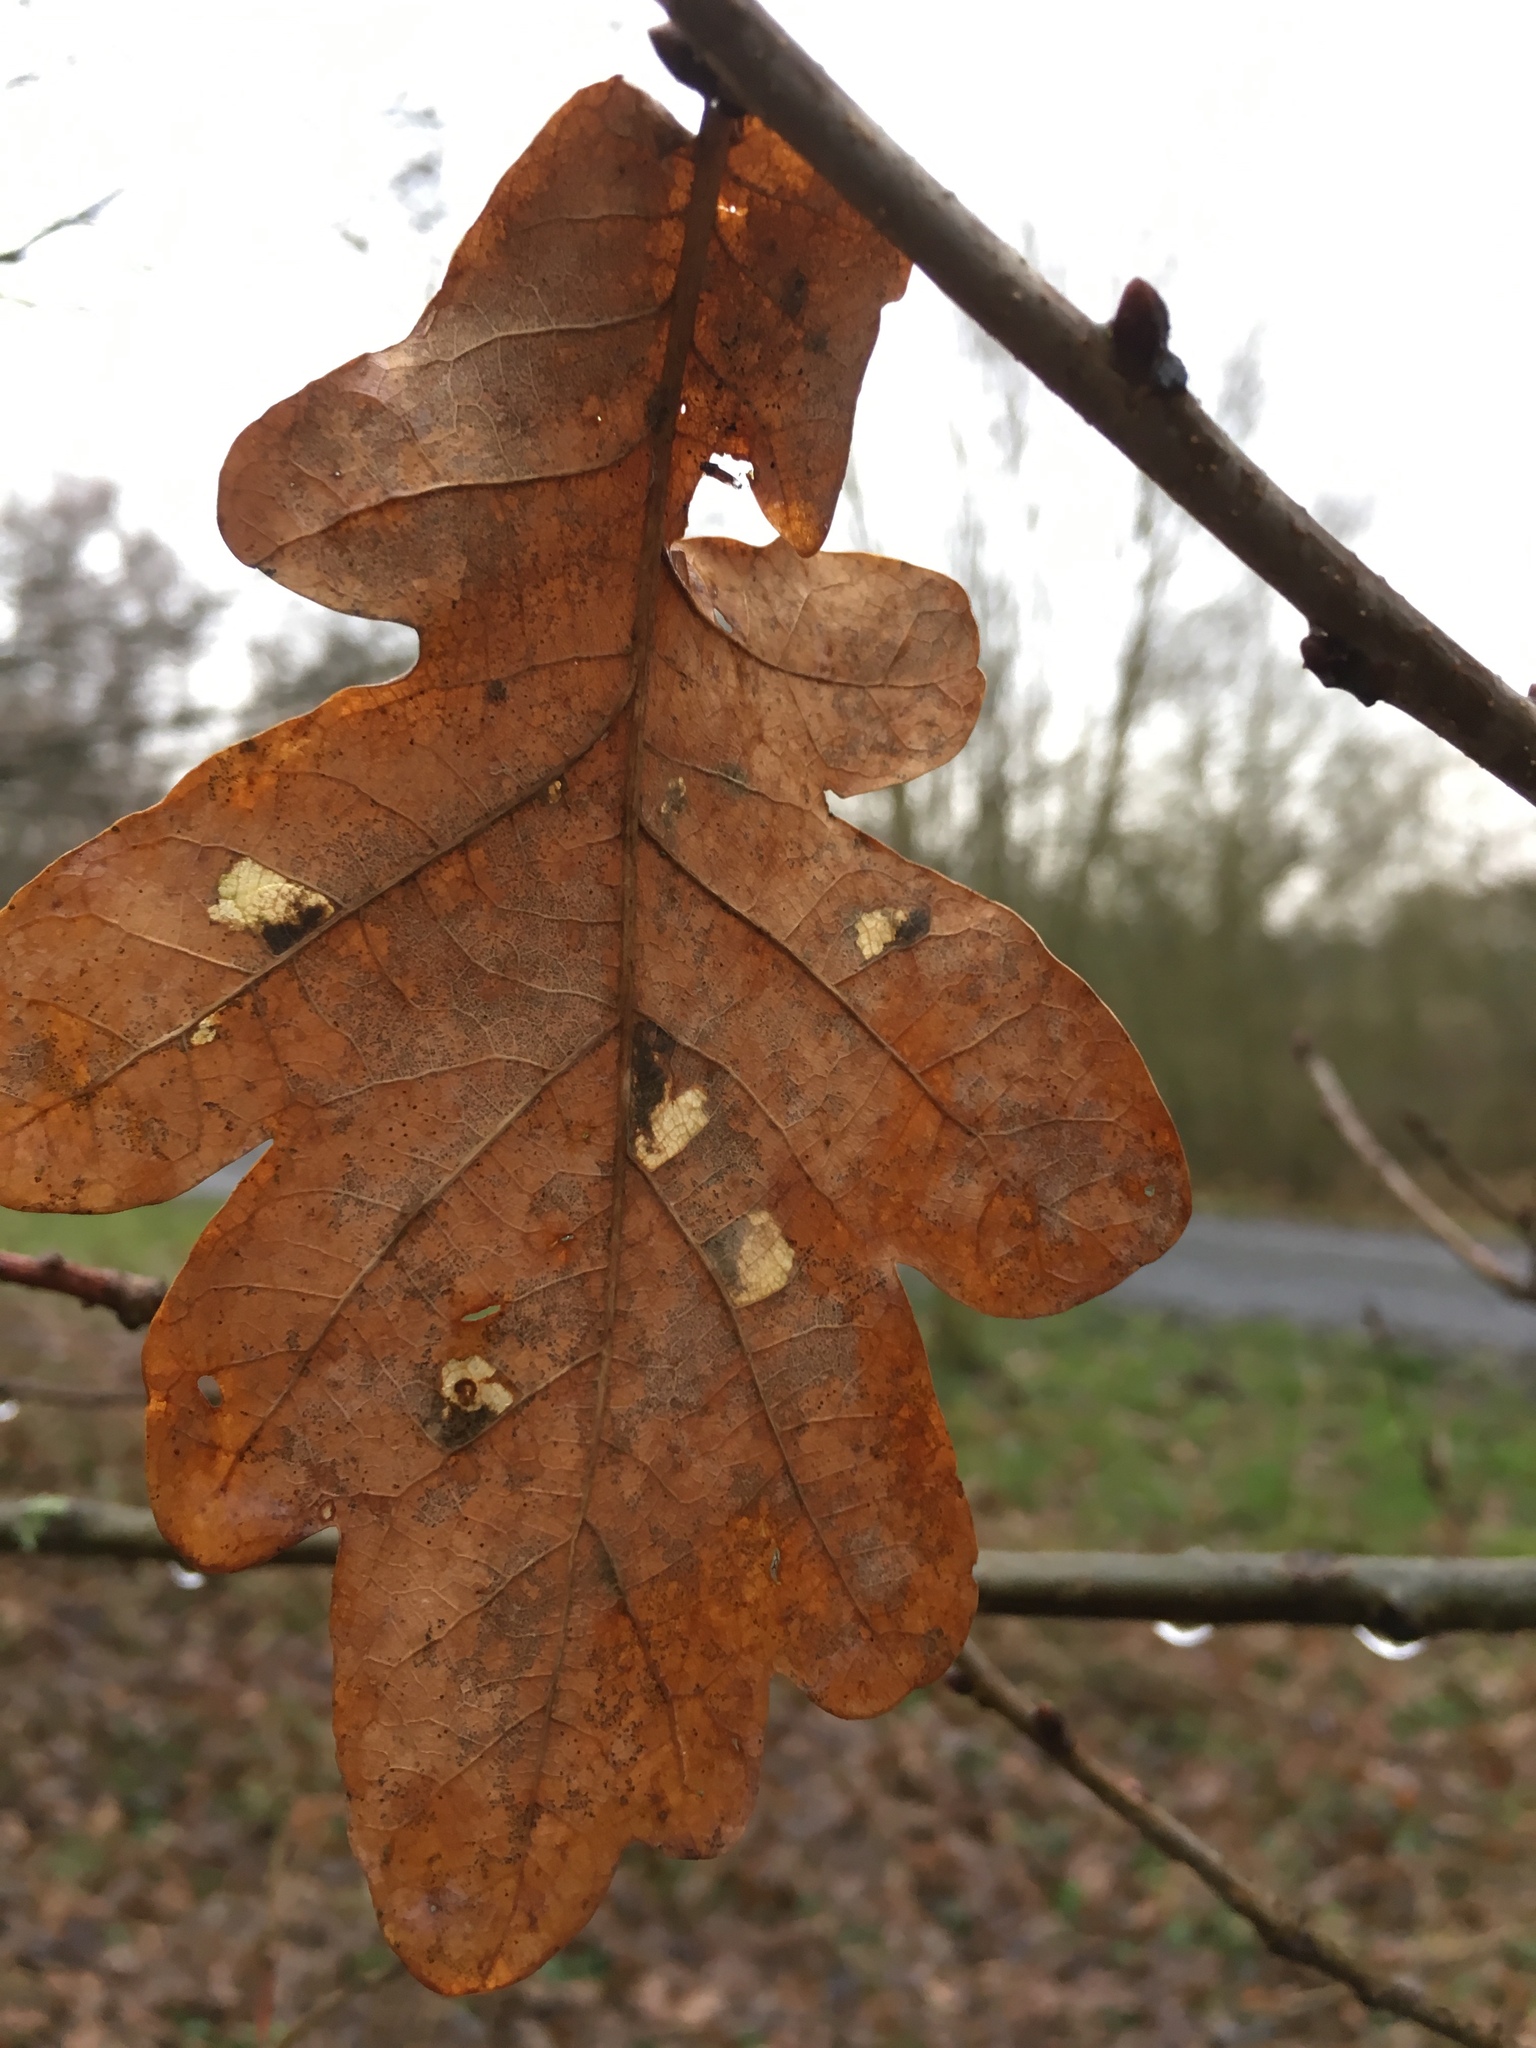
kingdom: Plantae
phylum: Tracheophyta
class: Magnoliopsida
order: Fagales
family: Fagaceae
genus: Quercus
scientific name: Quercus robur
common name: Pedunculate oak
